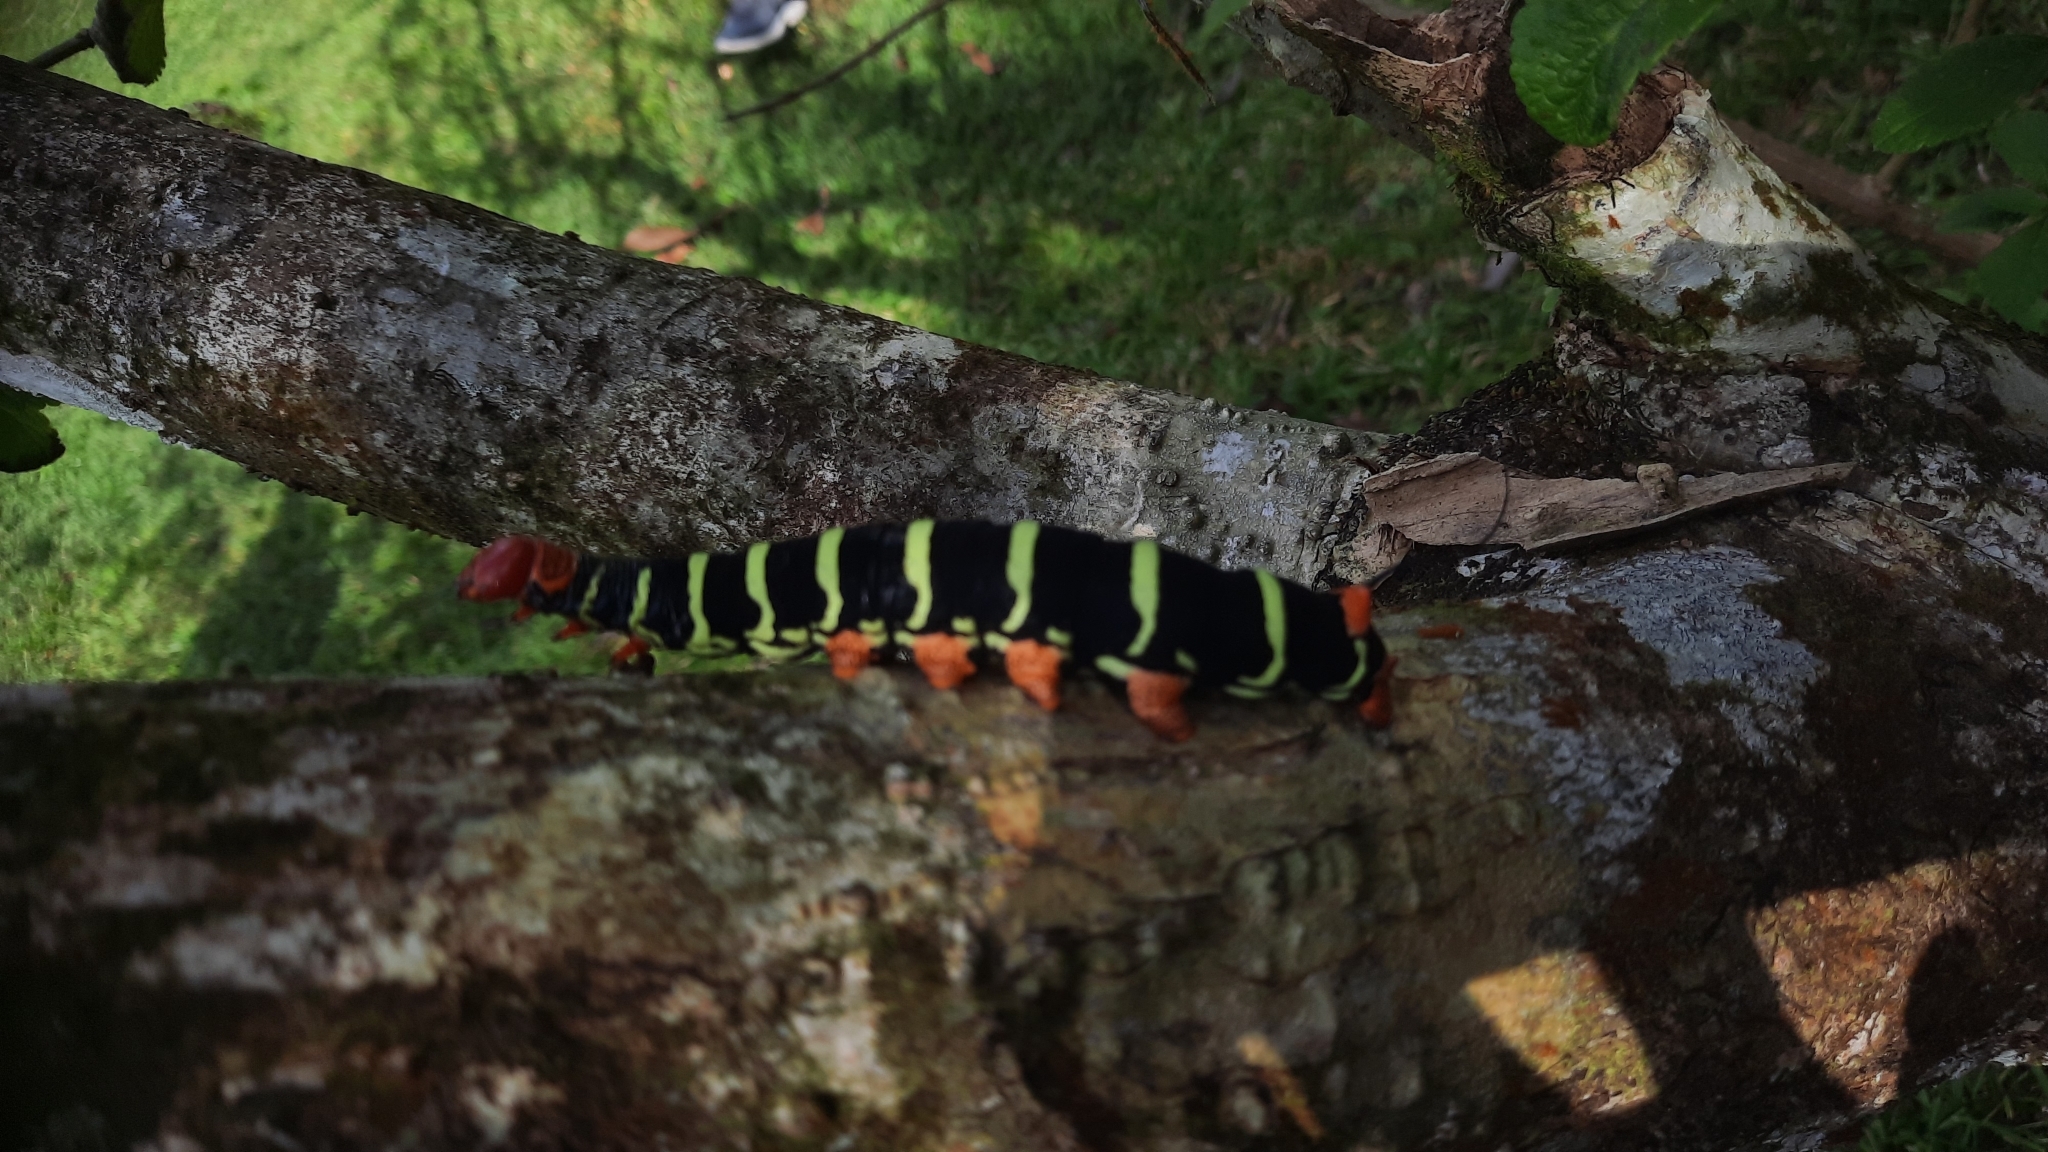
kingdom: Animalia
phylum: Arthropoda
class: Insecta
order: Lepidoptera
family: Sphingidae
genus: Pseudosphinx
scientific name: Pseudosphinx tetrio
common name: Tetrio sphinx
